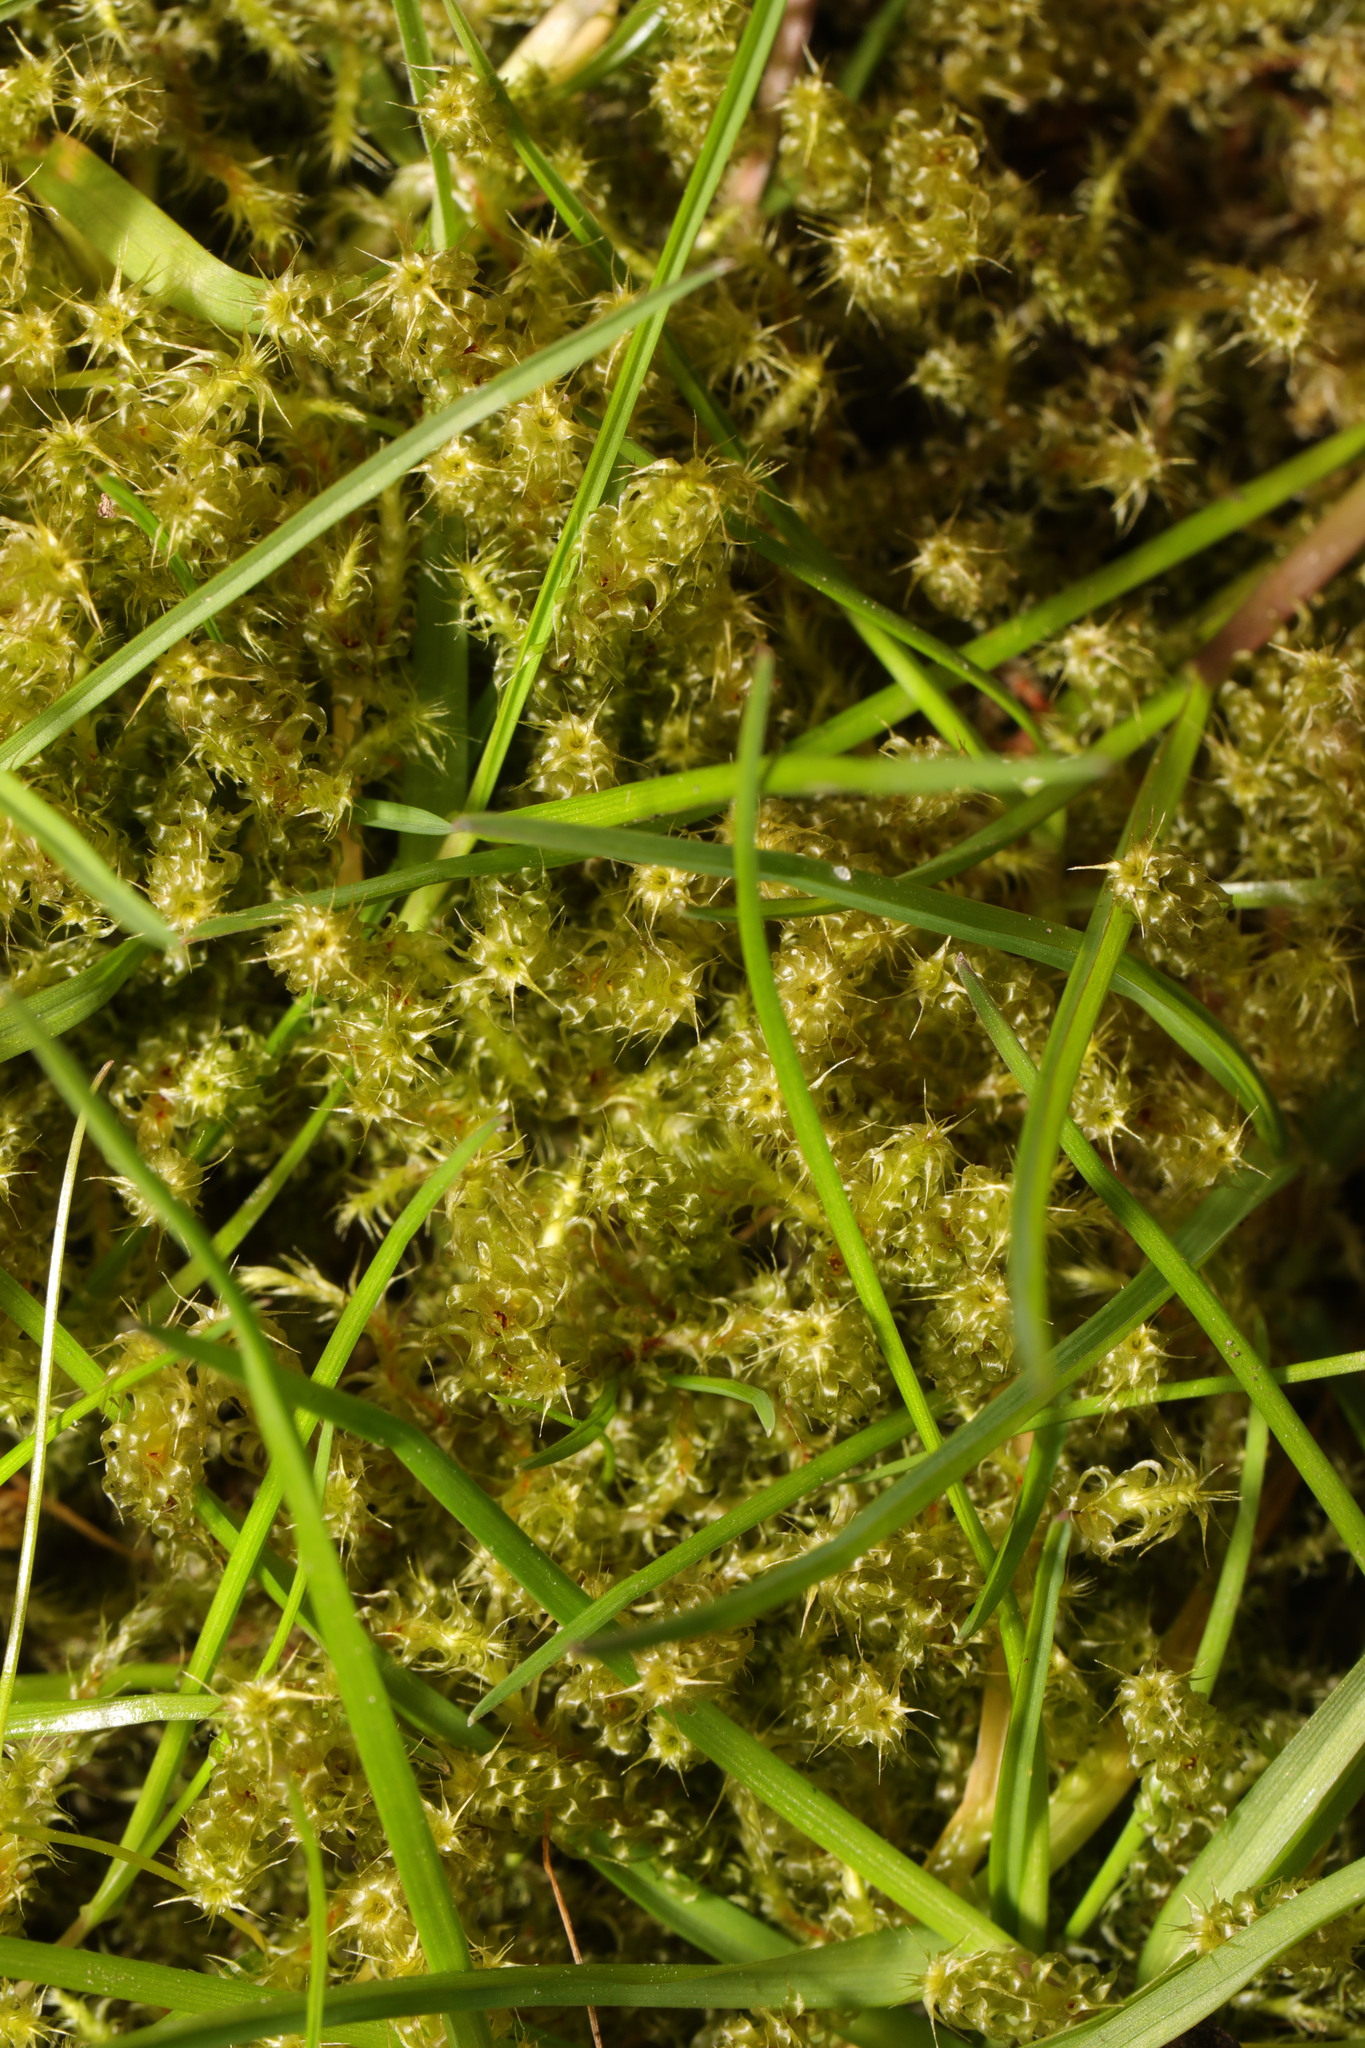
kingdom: Plantae
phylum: Bryophyta
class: Bryopsida
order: Hypnales
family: Hylocomiaceae
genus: Rhytidiadelphus
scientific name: Rhytidiadelphus squarrosus
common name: Springy turf-moss
